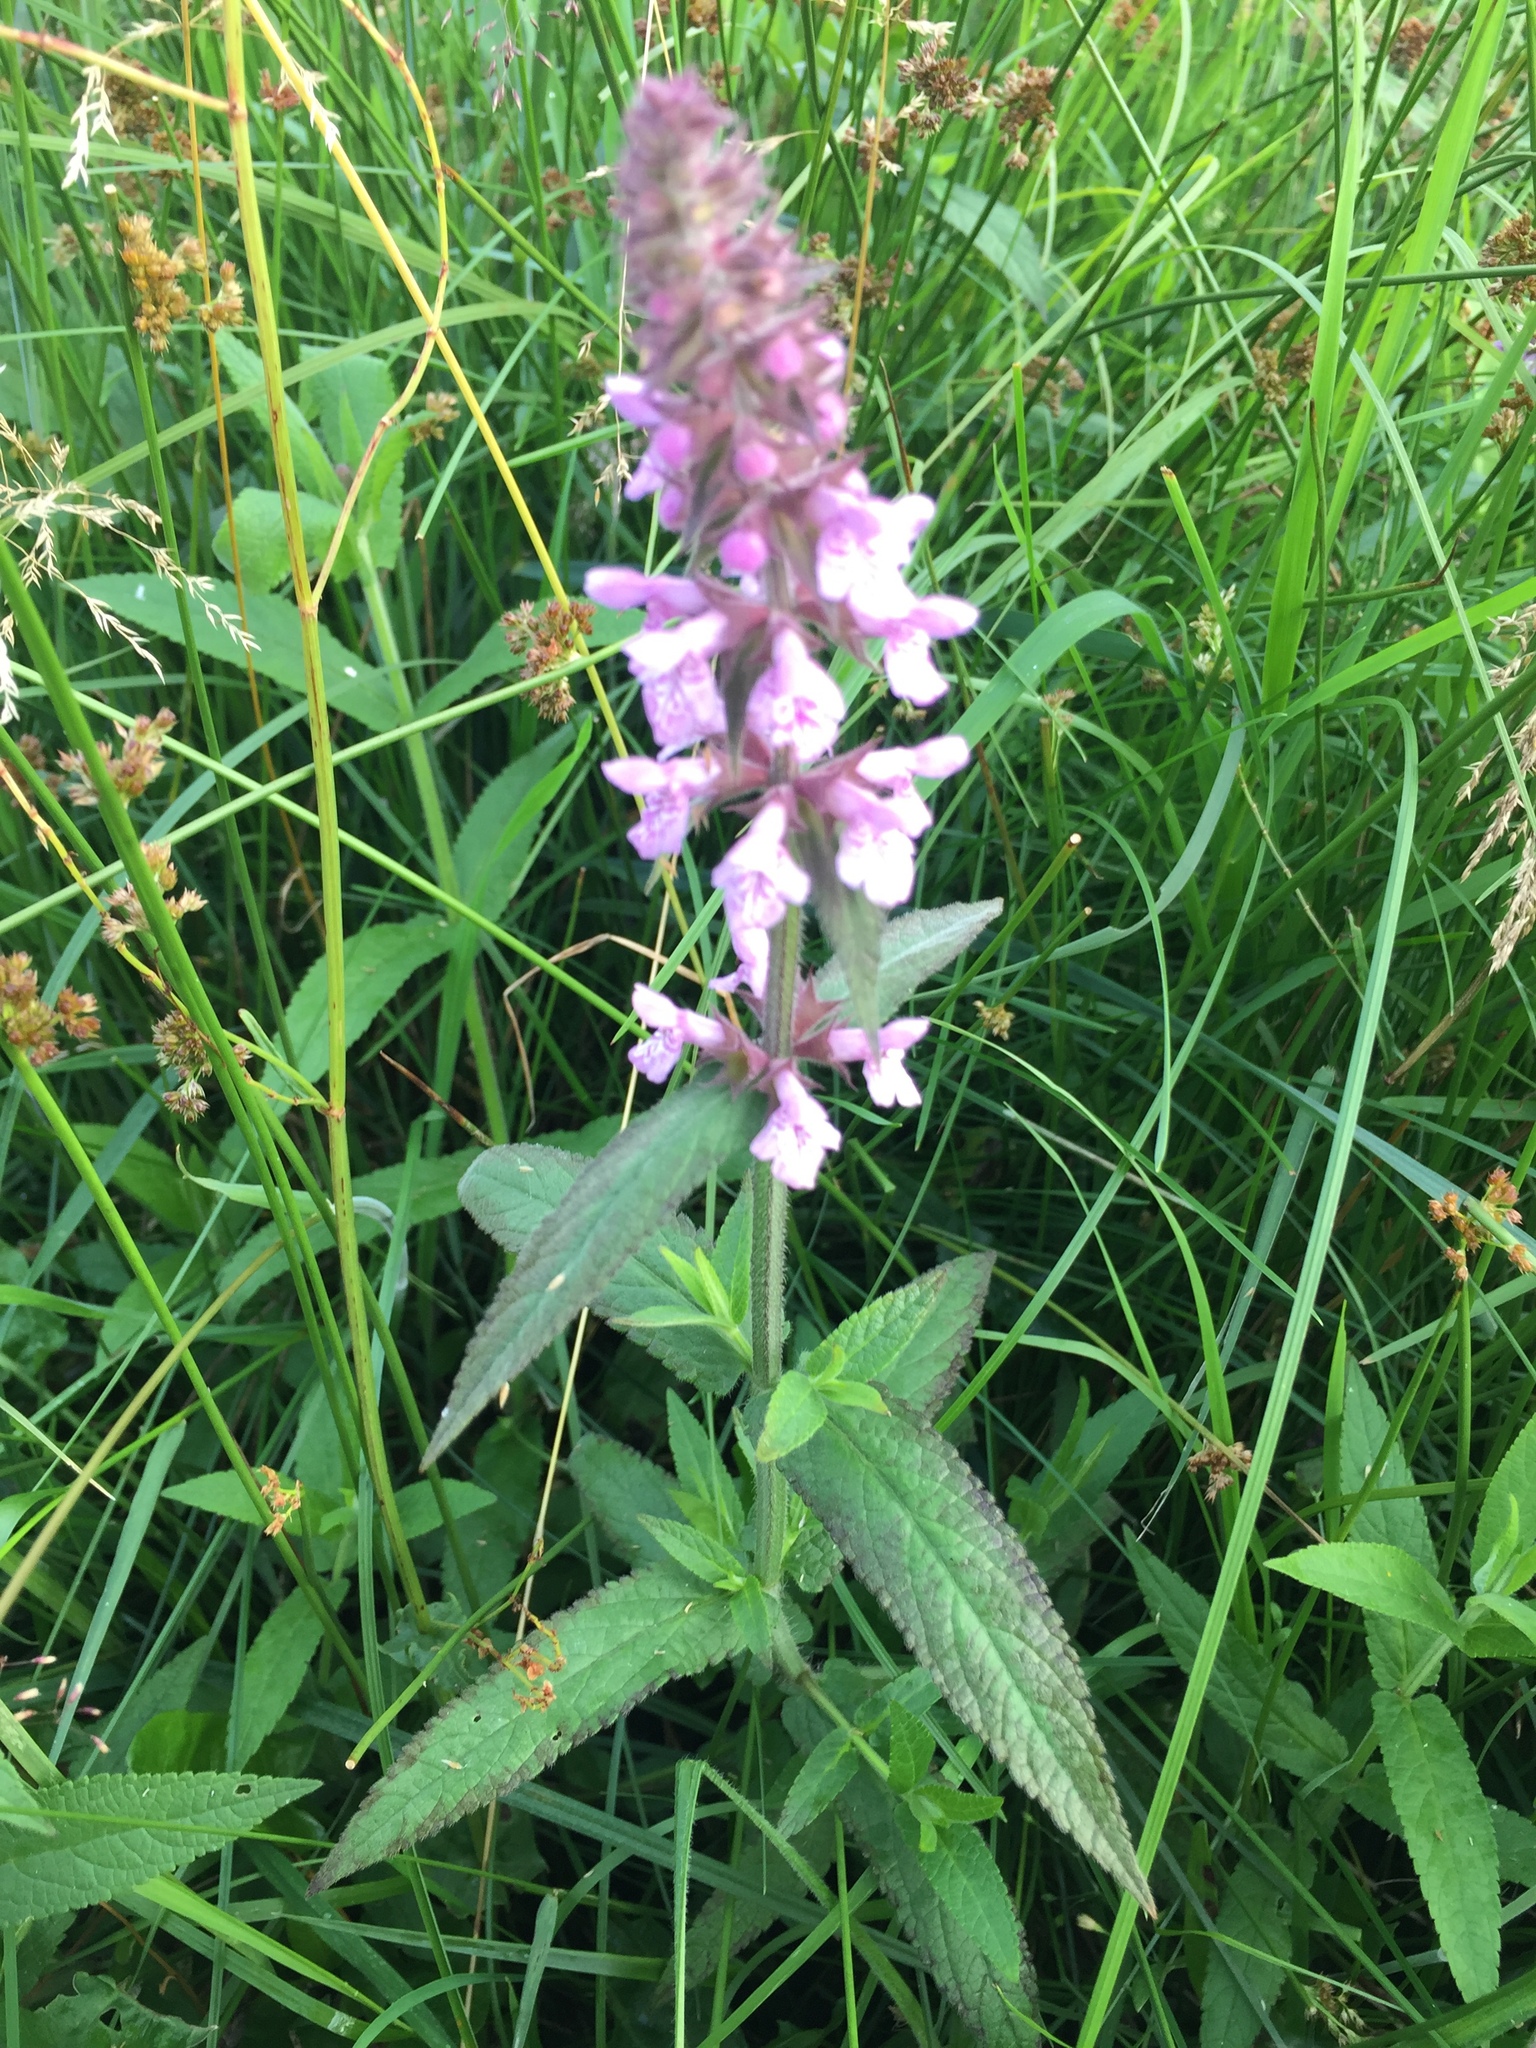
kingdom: Plantae
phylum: Tracheophyta
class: Magnoliopsida
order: Lamiales
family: Lamiaceae
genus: Stachys
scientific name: Stachys palustris
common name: Marsh woundwort
